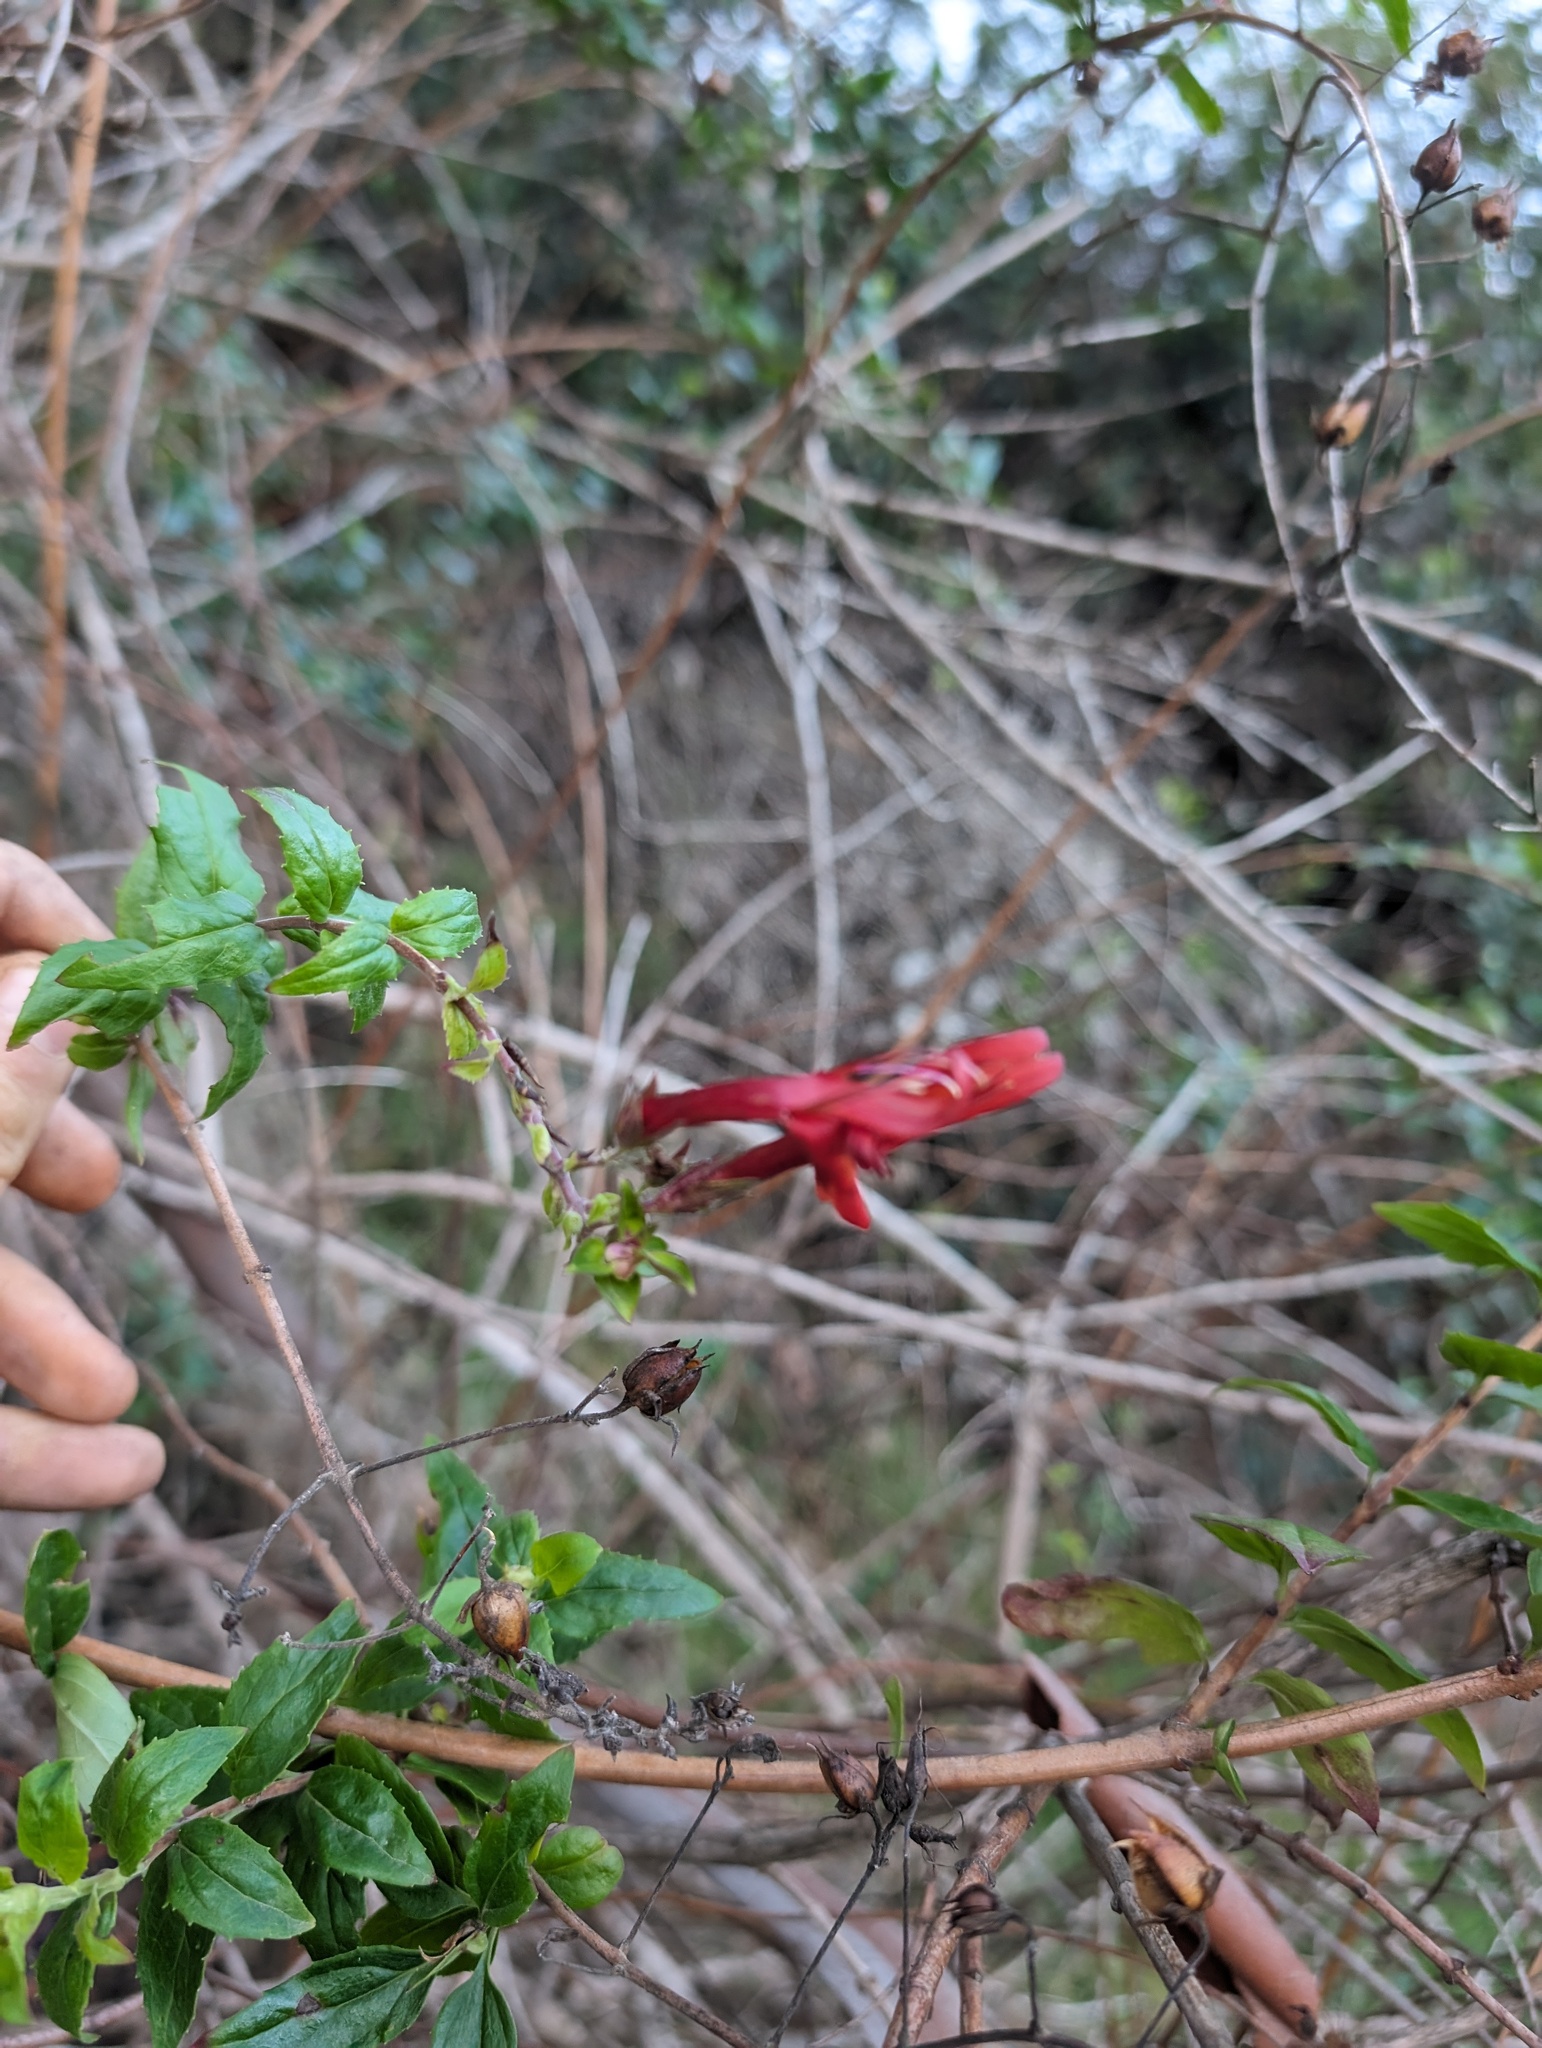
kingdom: Plantae
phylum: Tracheophyta
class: Magnoliopsida
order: Lamiales
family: Plantaginaceae
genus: Keckiella
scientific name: Keckiella cordifolia
